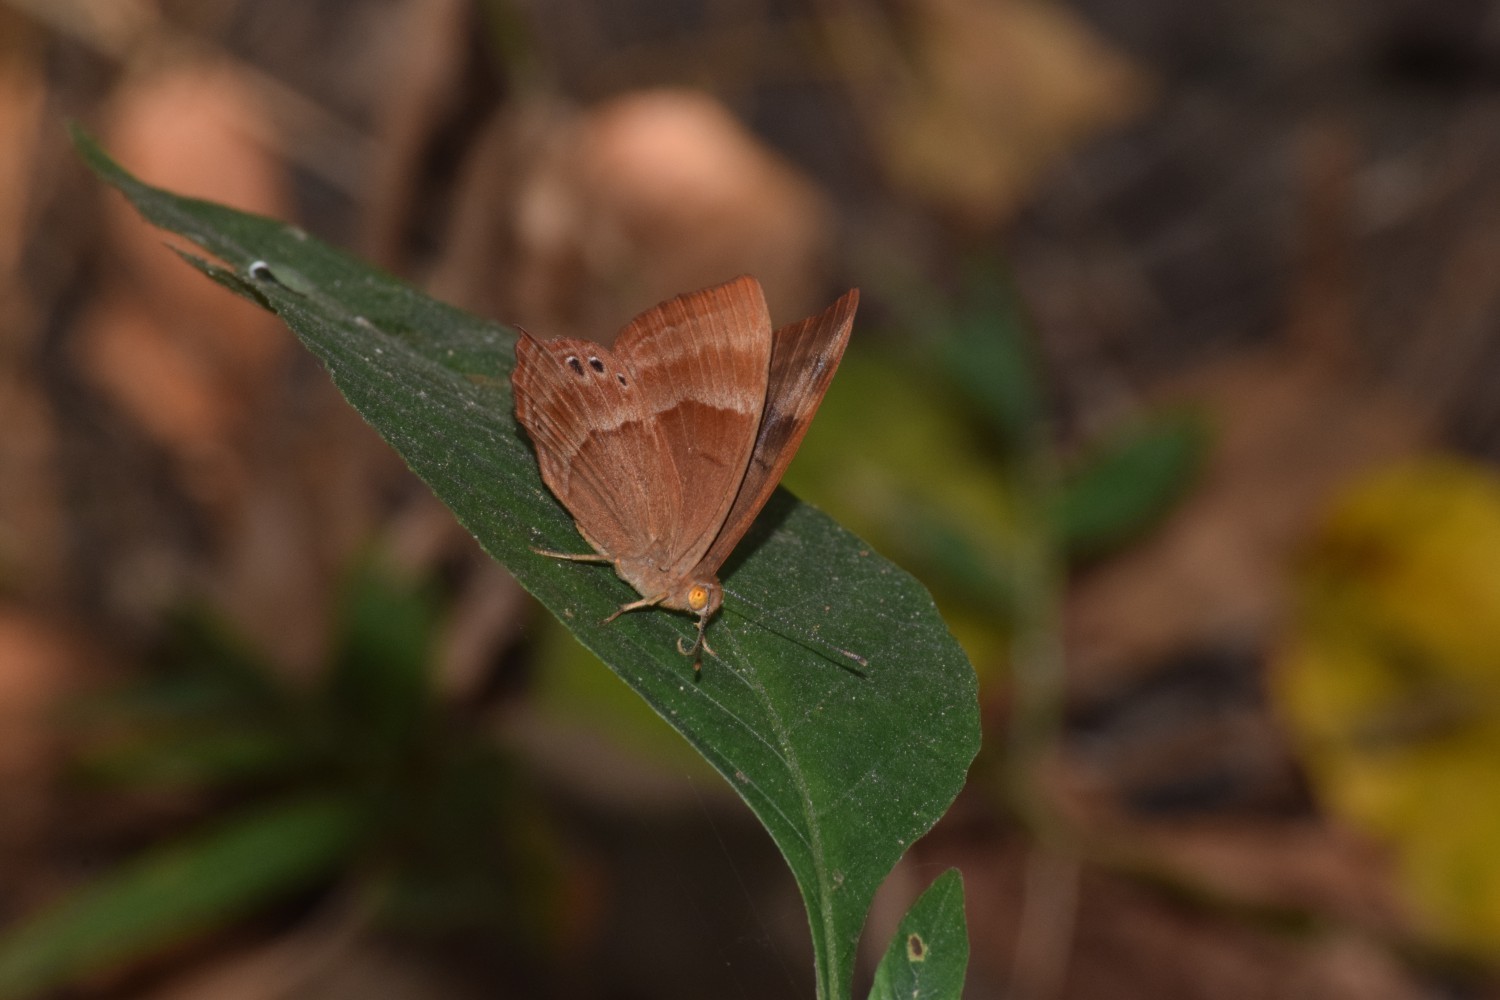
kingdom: Animalia
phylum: Arthropoda
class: Insecta
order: Lepidoptera
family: Lycaenidae
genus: Abisara
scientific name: Abisara bifasciata
